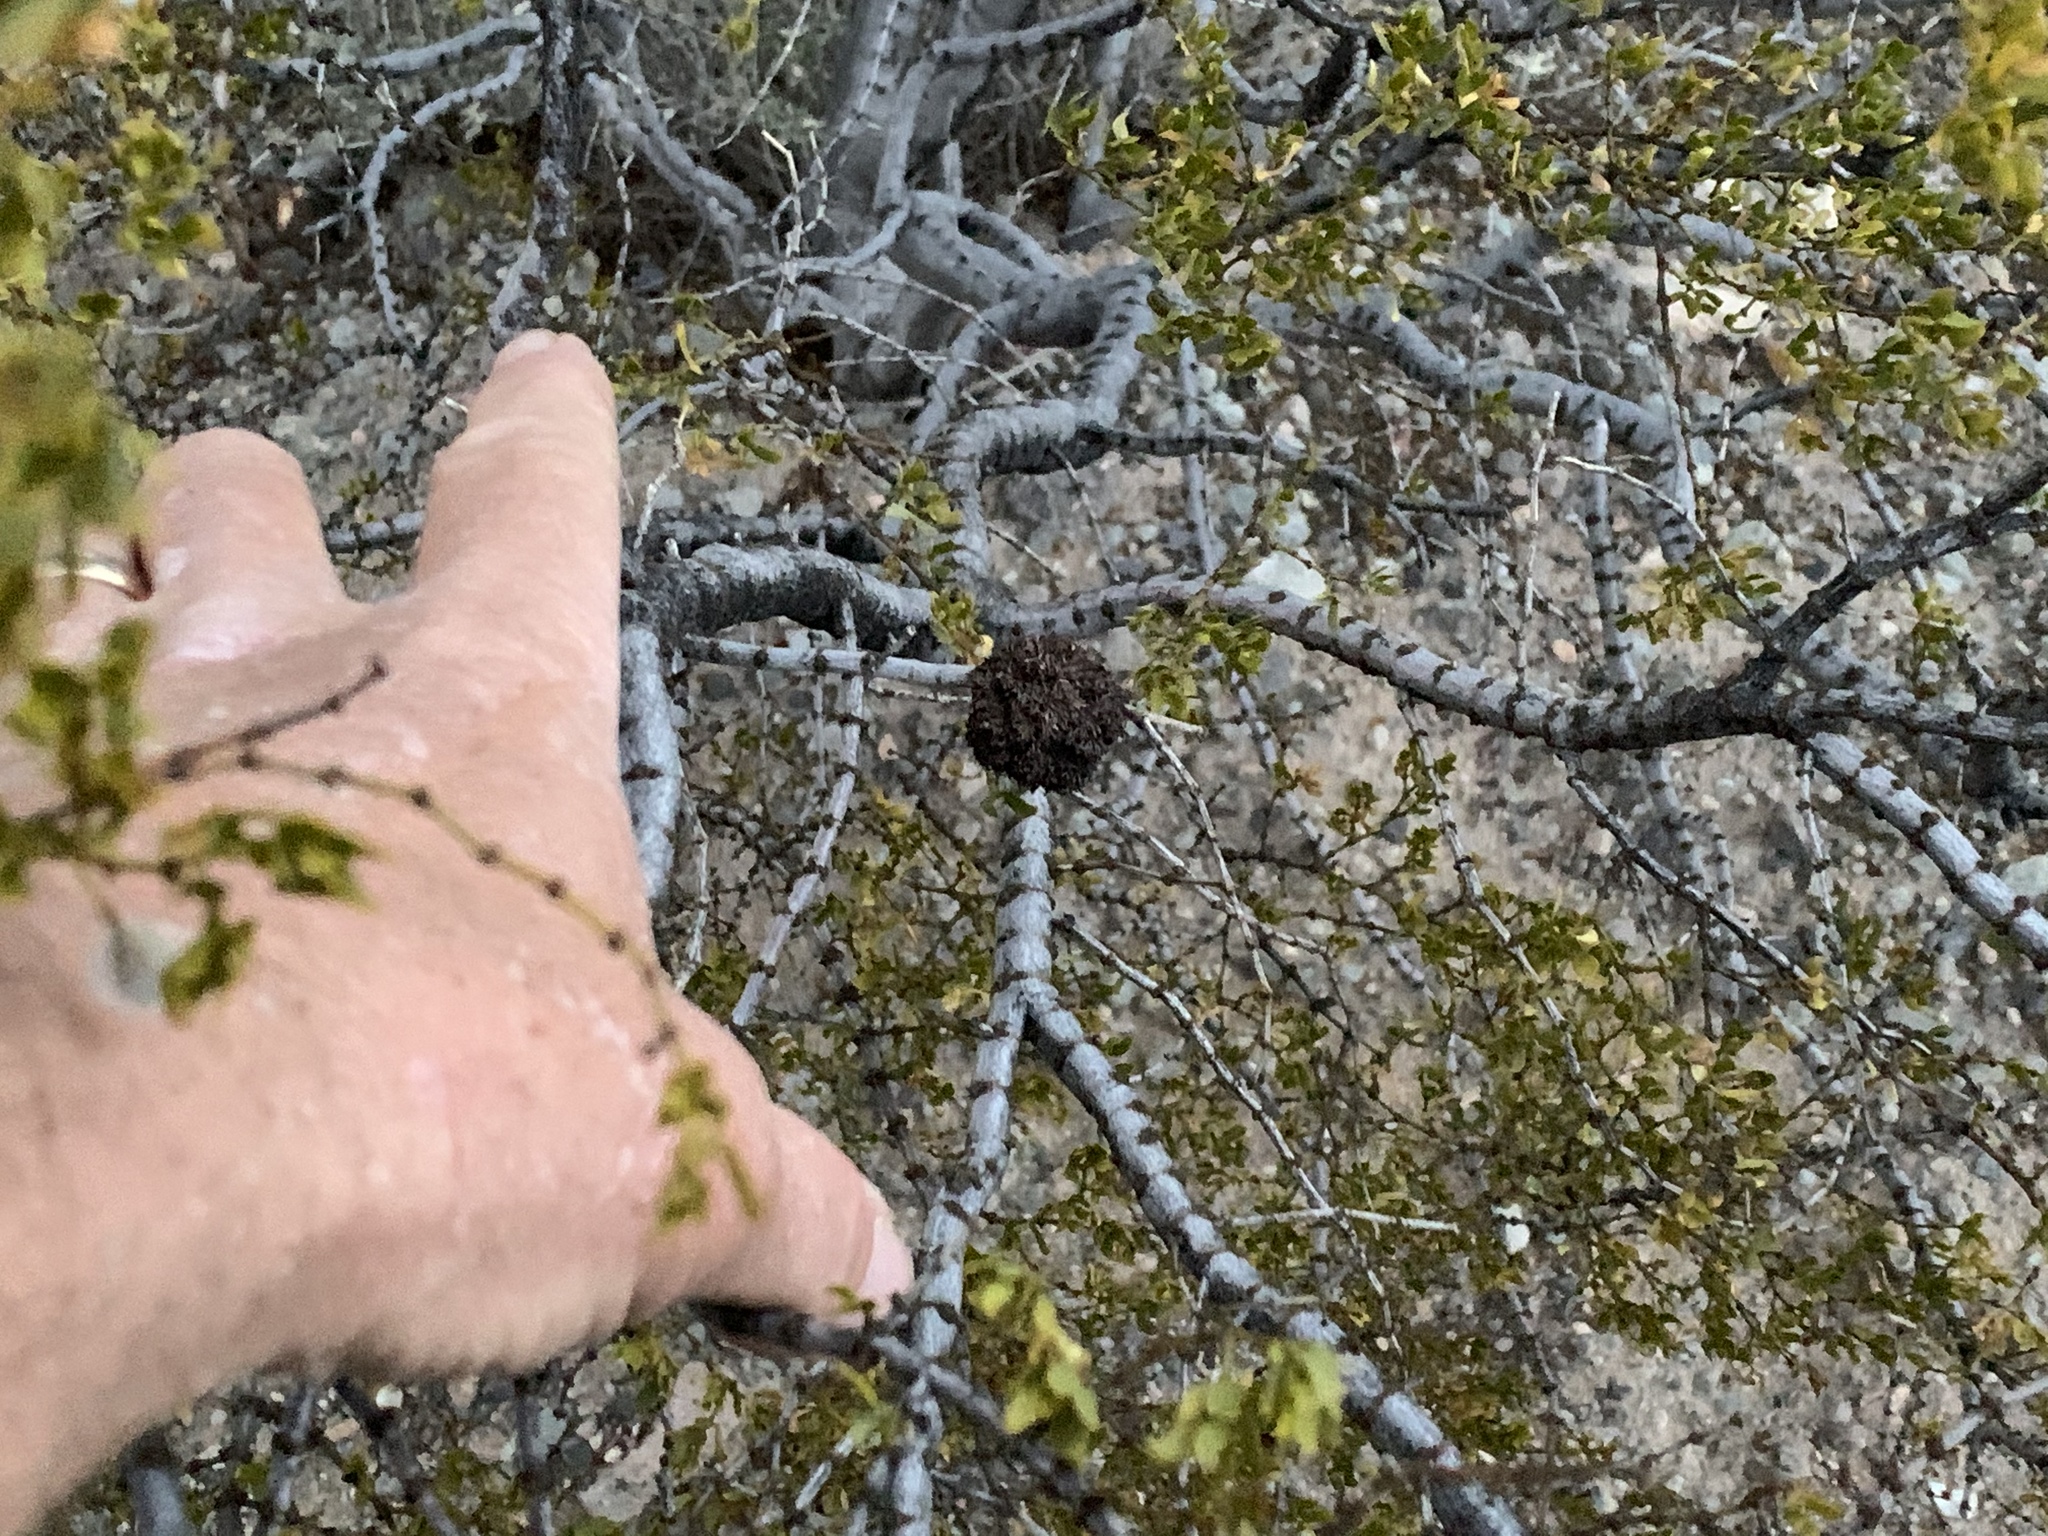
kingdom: Animalia
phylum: Arthropoda
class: Insecta
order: Diptera
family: Cecidomyiidae
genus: Asphondylia
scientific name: Asphondylia auripila
